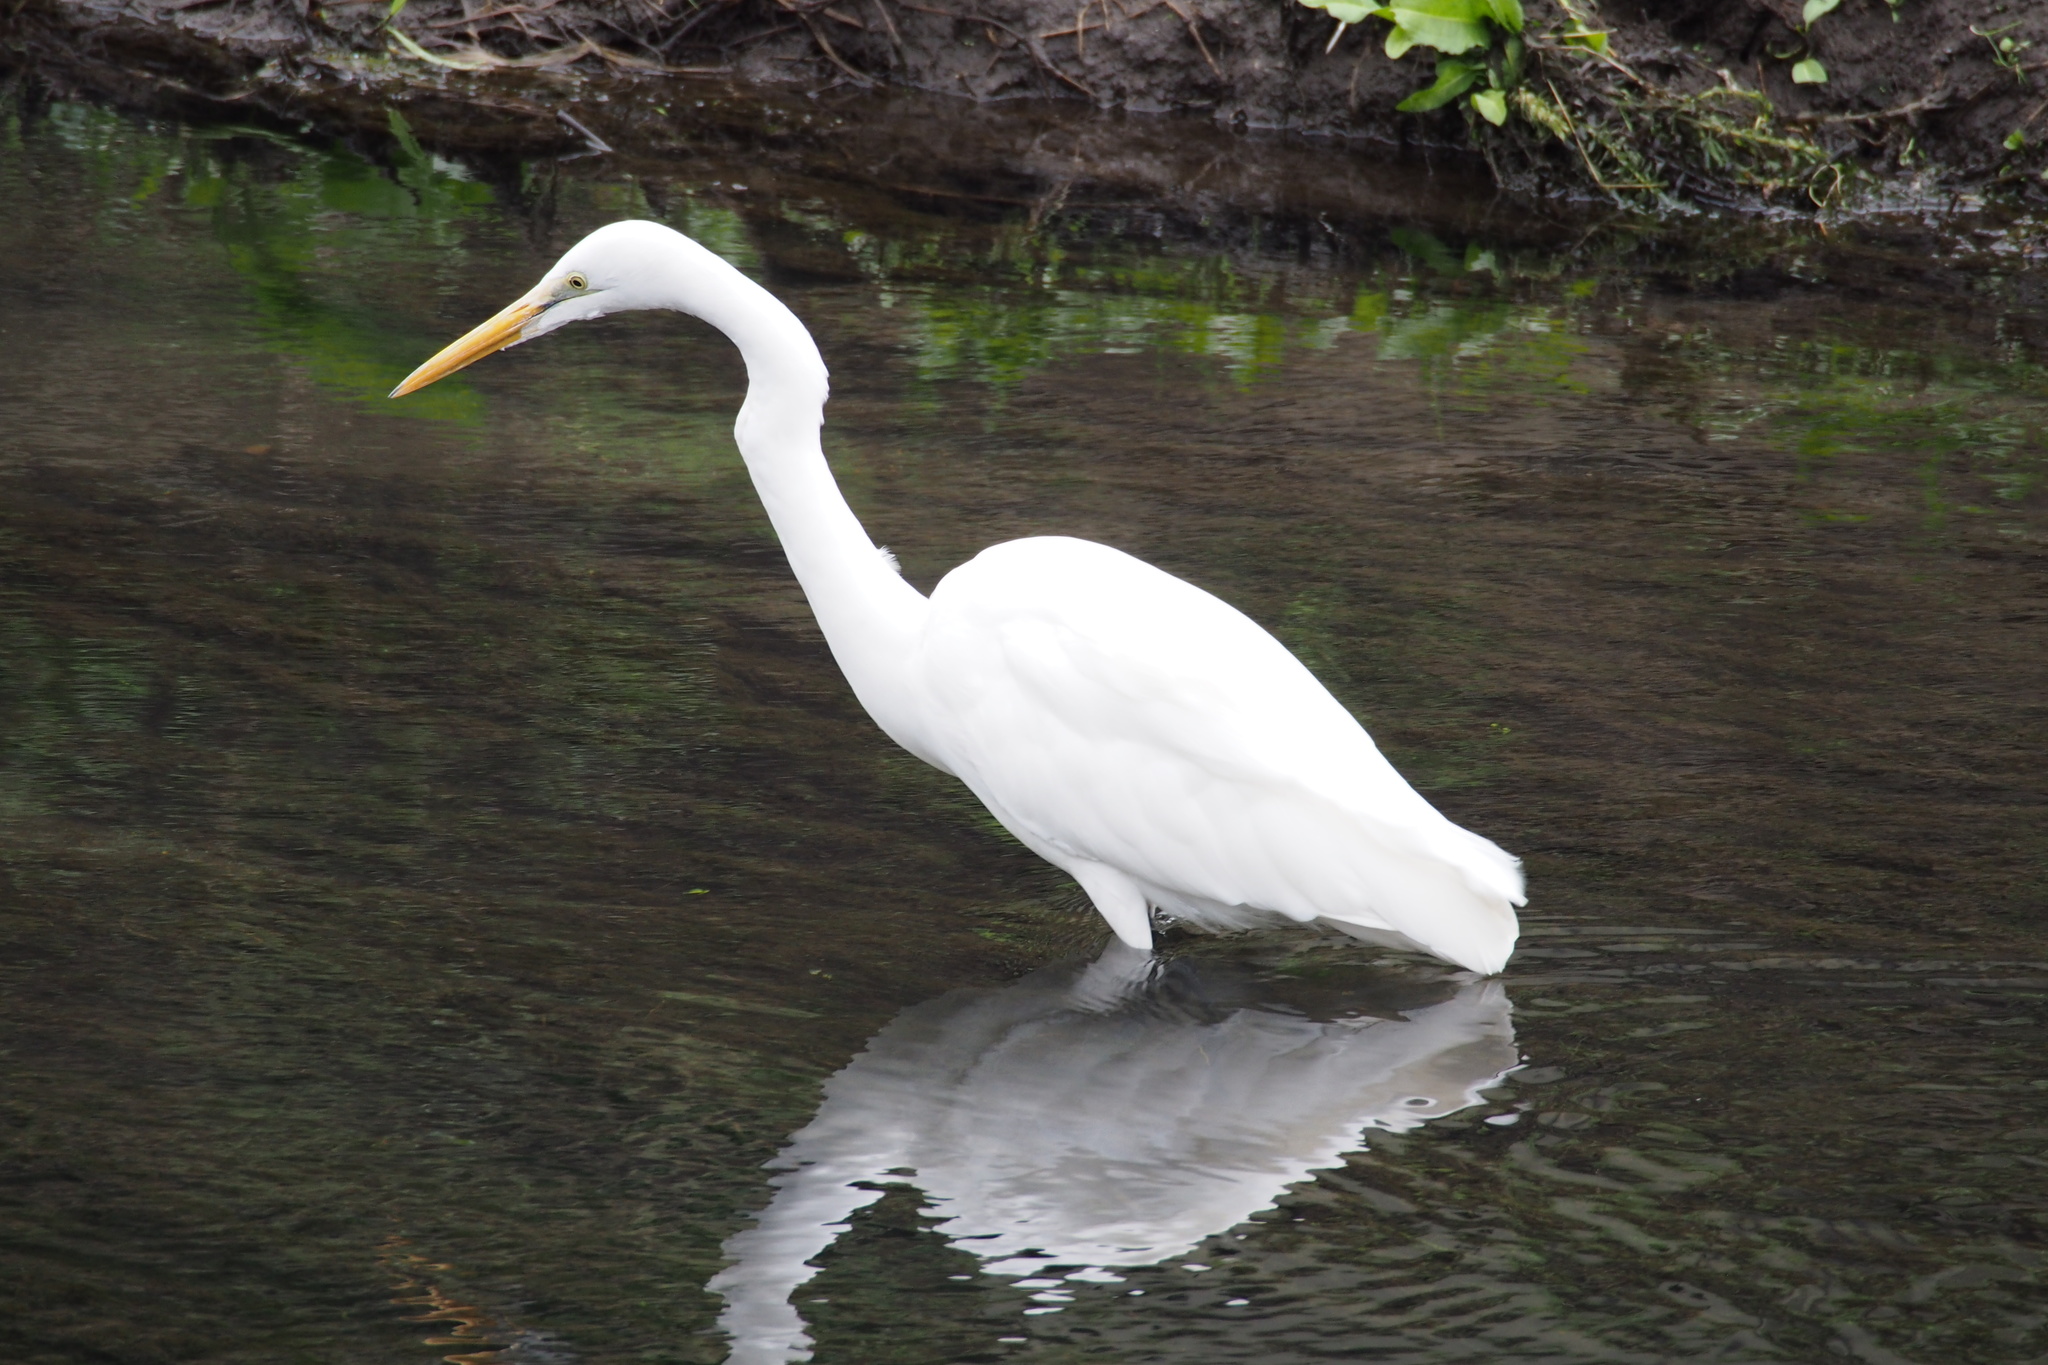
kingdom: Animalia
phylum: Chordata
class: Aves
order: Pelecaniformes
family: Ardeidae
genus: Ardea
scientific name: Ardea alba
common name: Great egret
